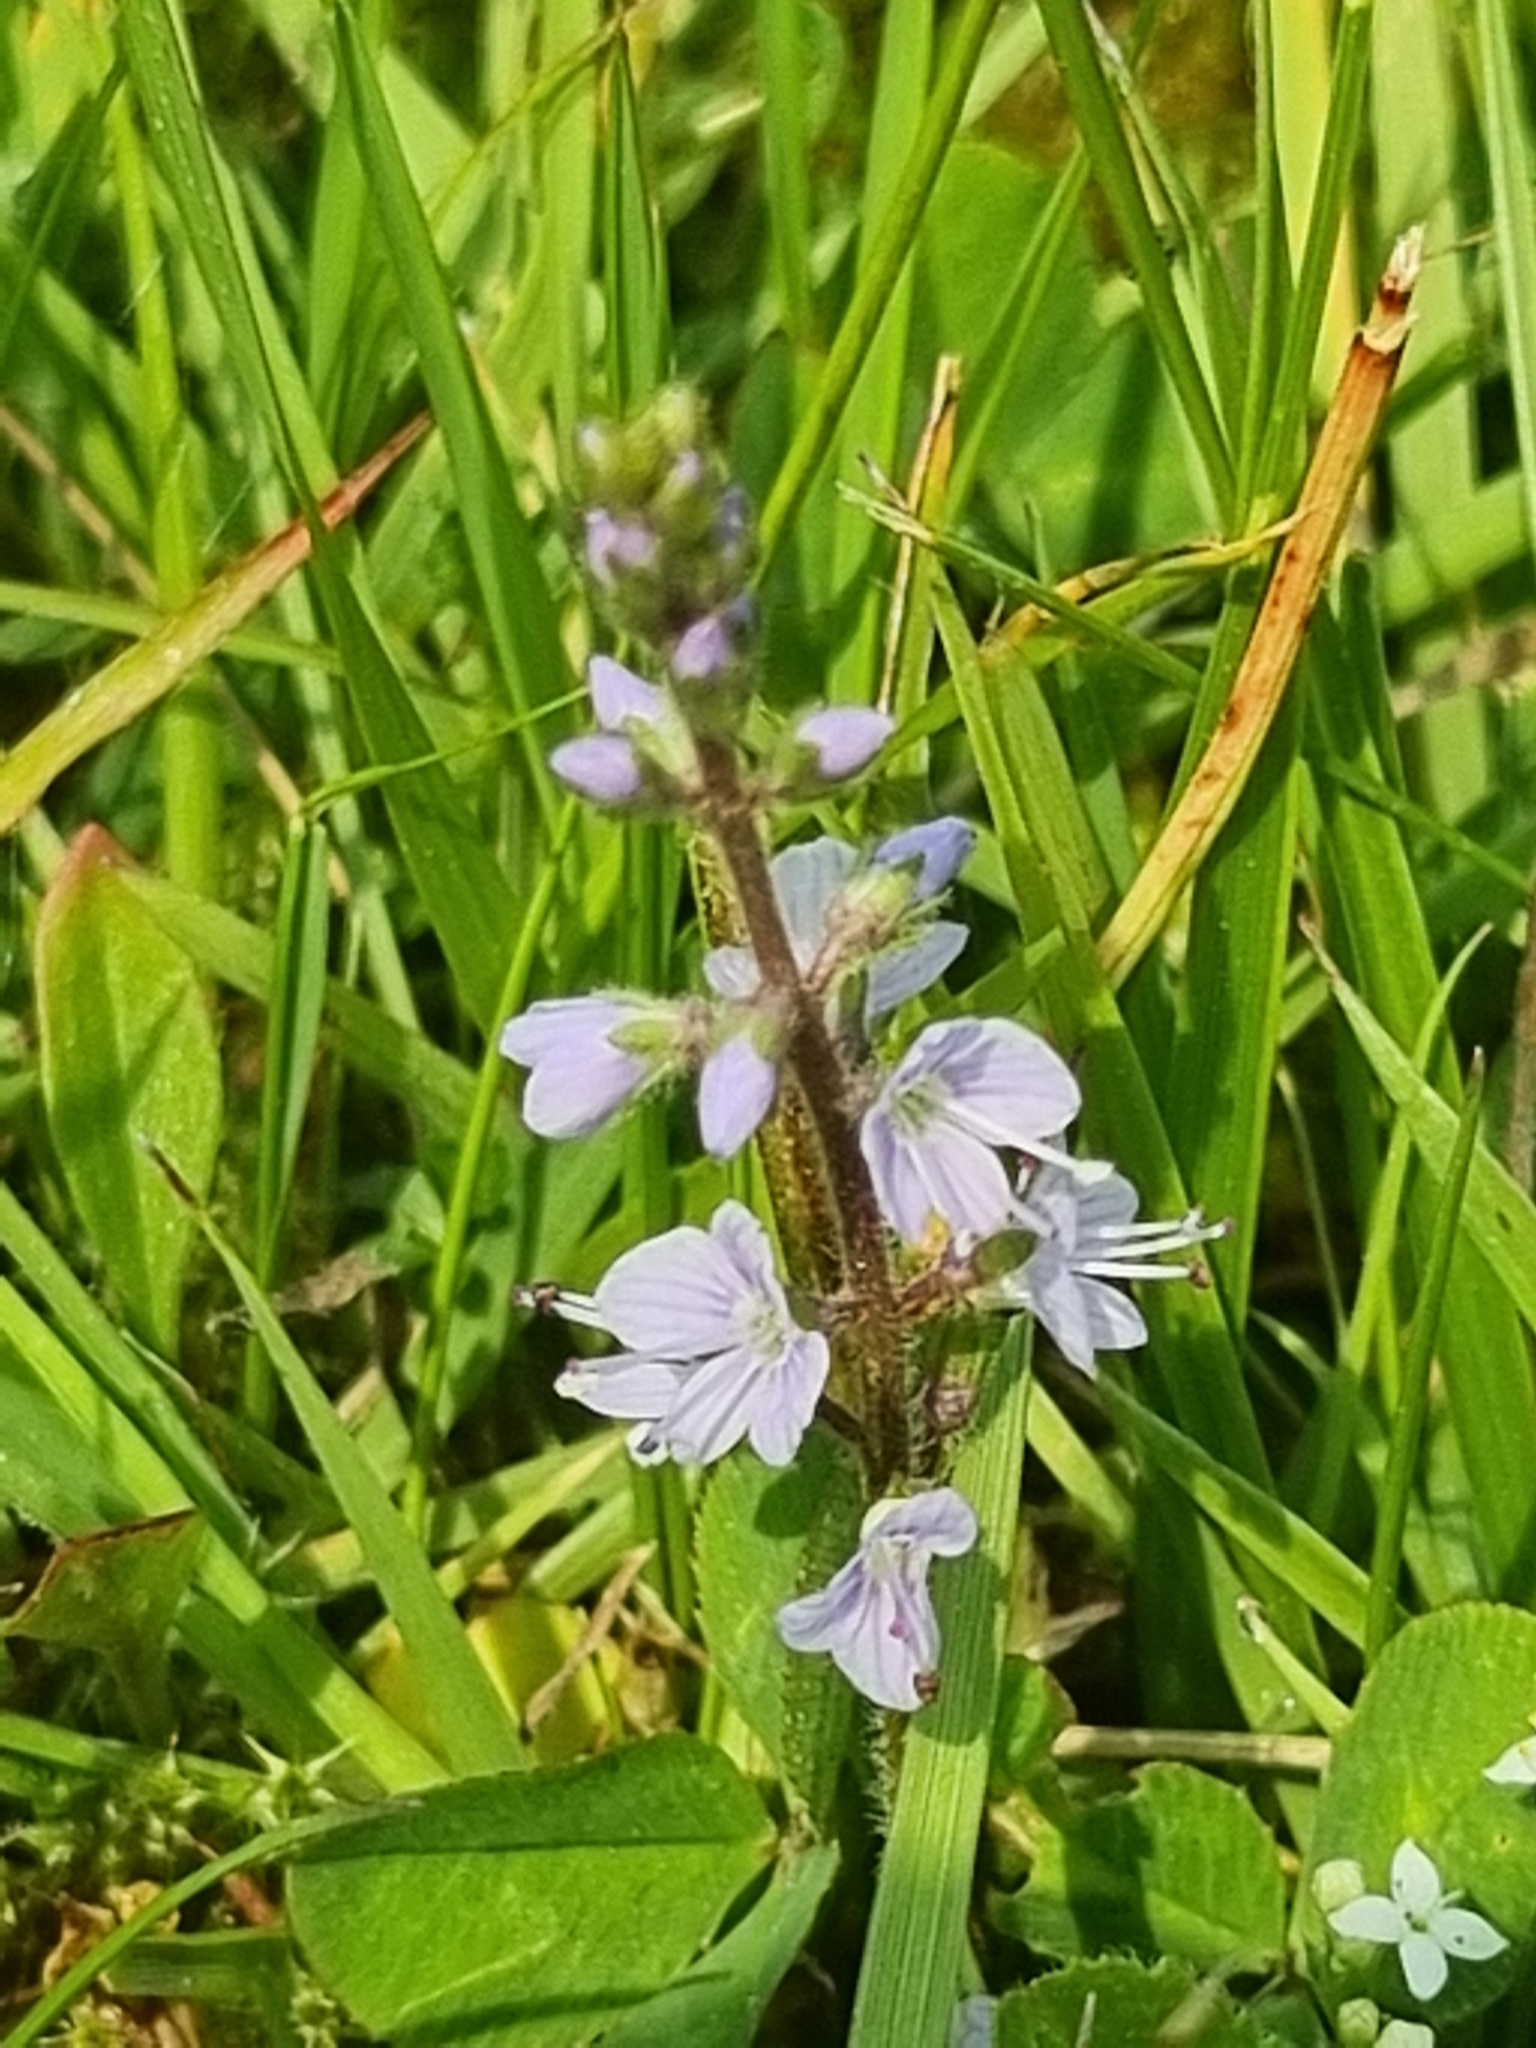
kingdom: Plantae
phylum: Tracheophyta
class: Magnoliopsida
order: Lamiales
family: Plantaginaceae
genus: Veronica
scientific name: Veronica officinalis
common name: Common speedwell
